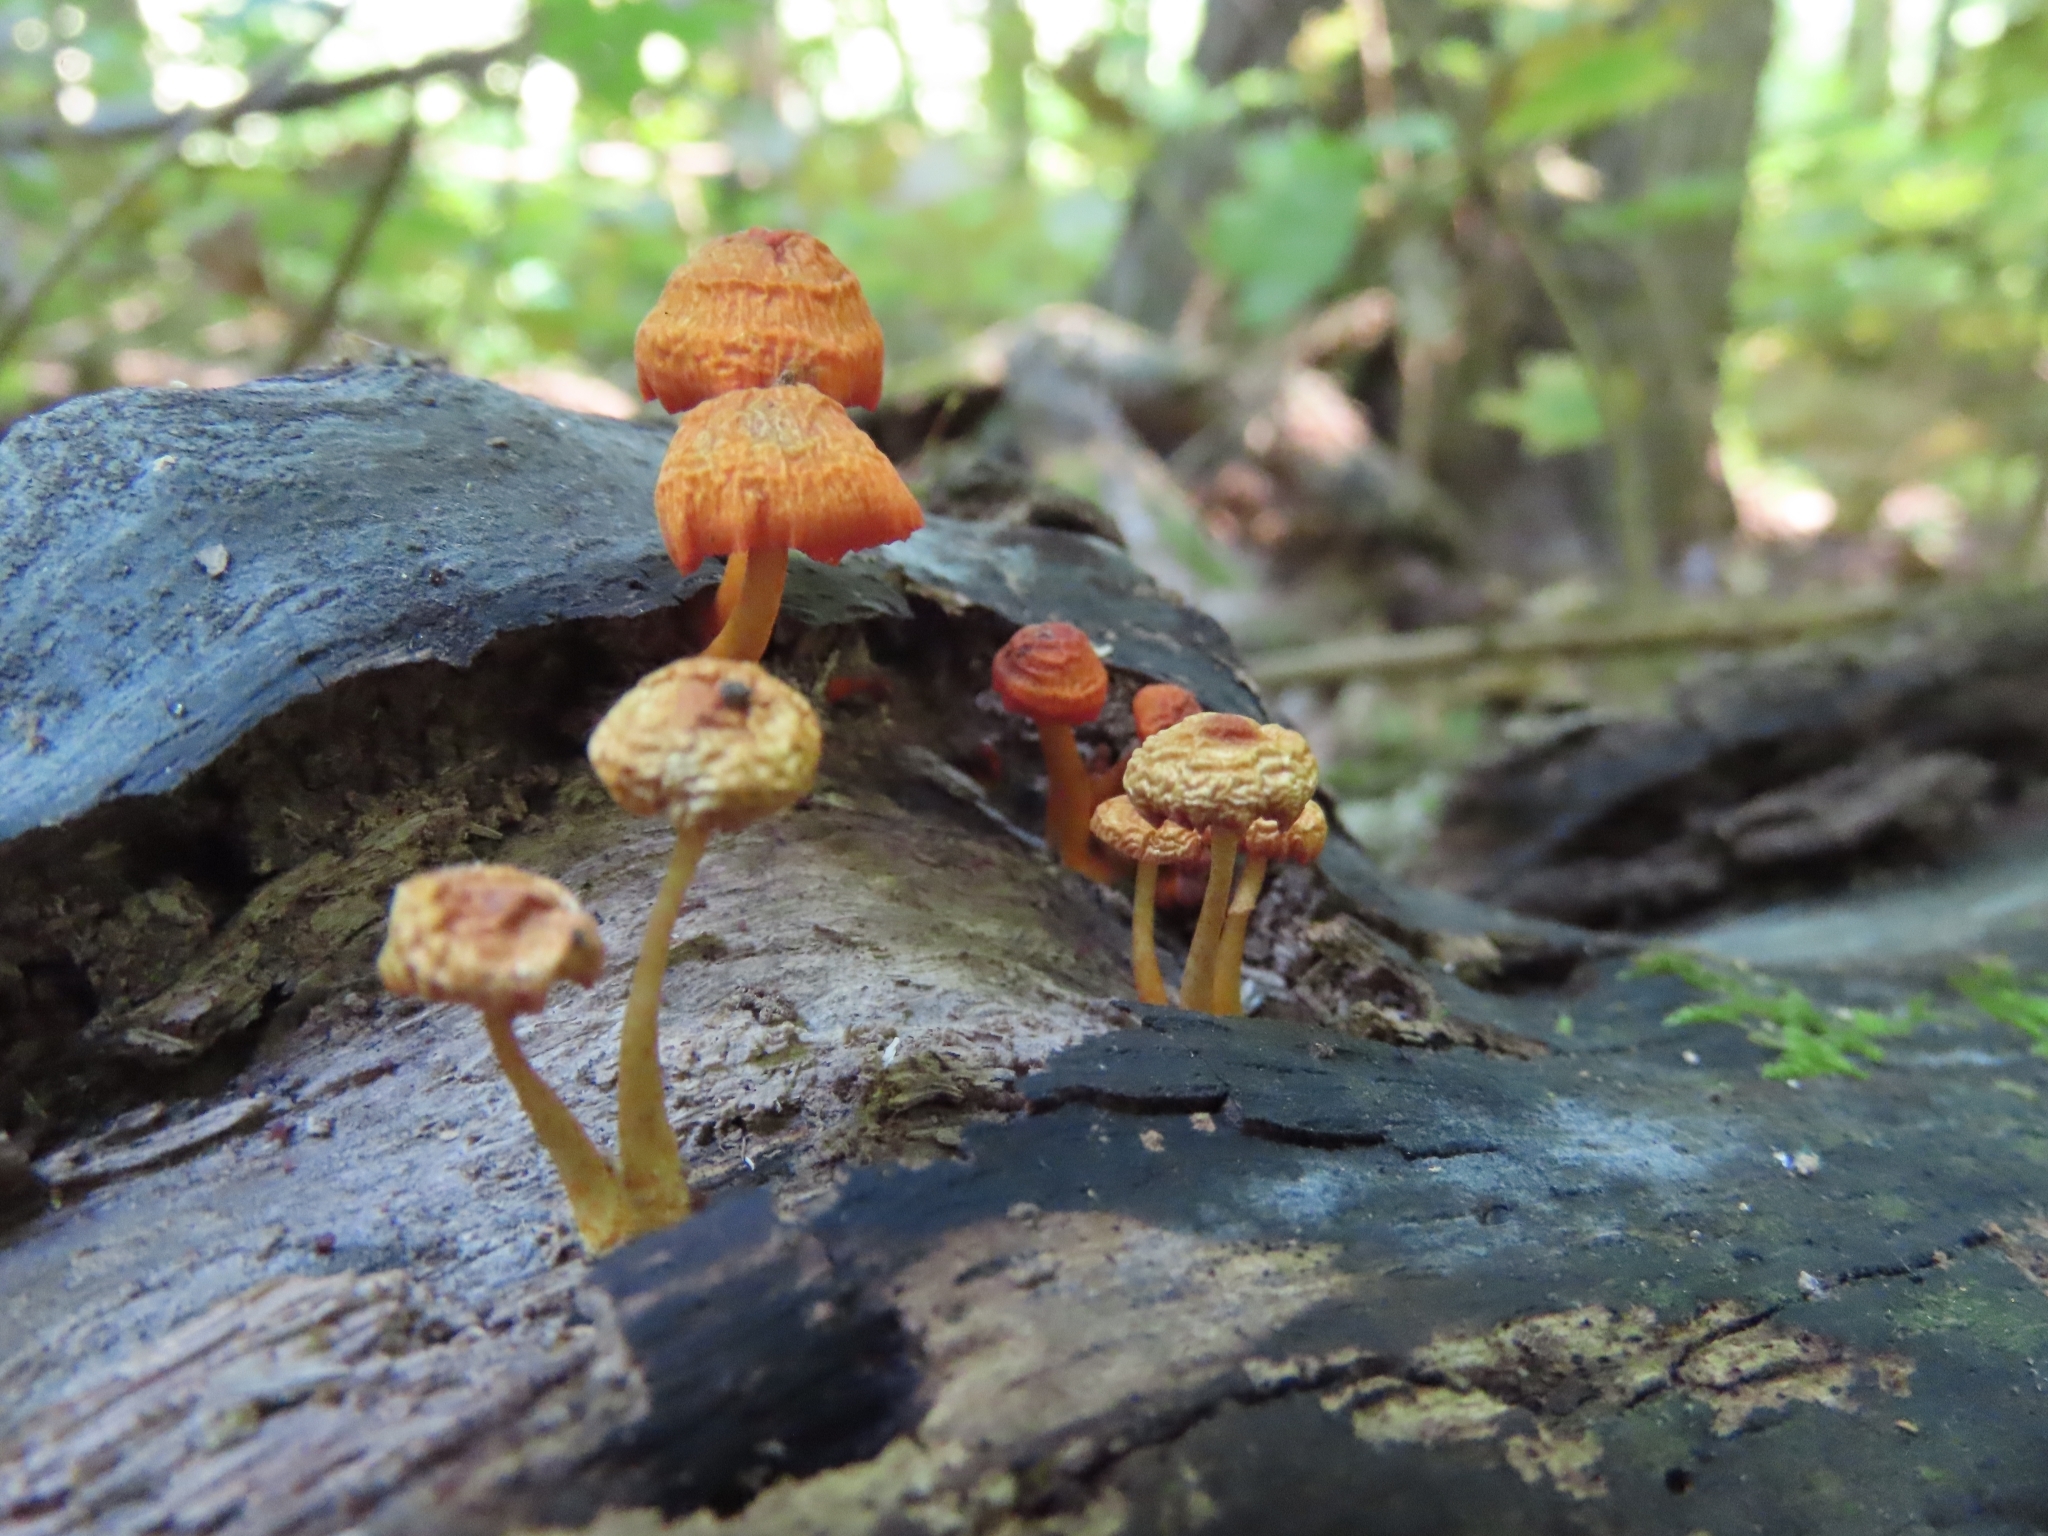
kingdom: Fungi
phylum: Basidiomycota
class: Agaricomycetes
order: Agaricales
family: Mycenaceae
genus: Mycena
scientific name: Mycena leaiana
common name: Orange mycena
